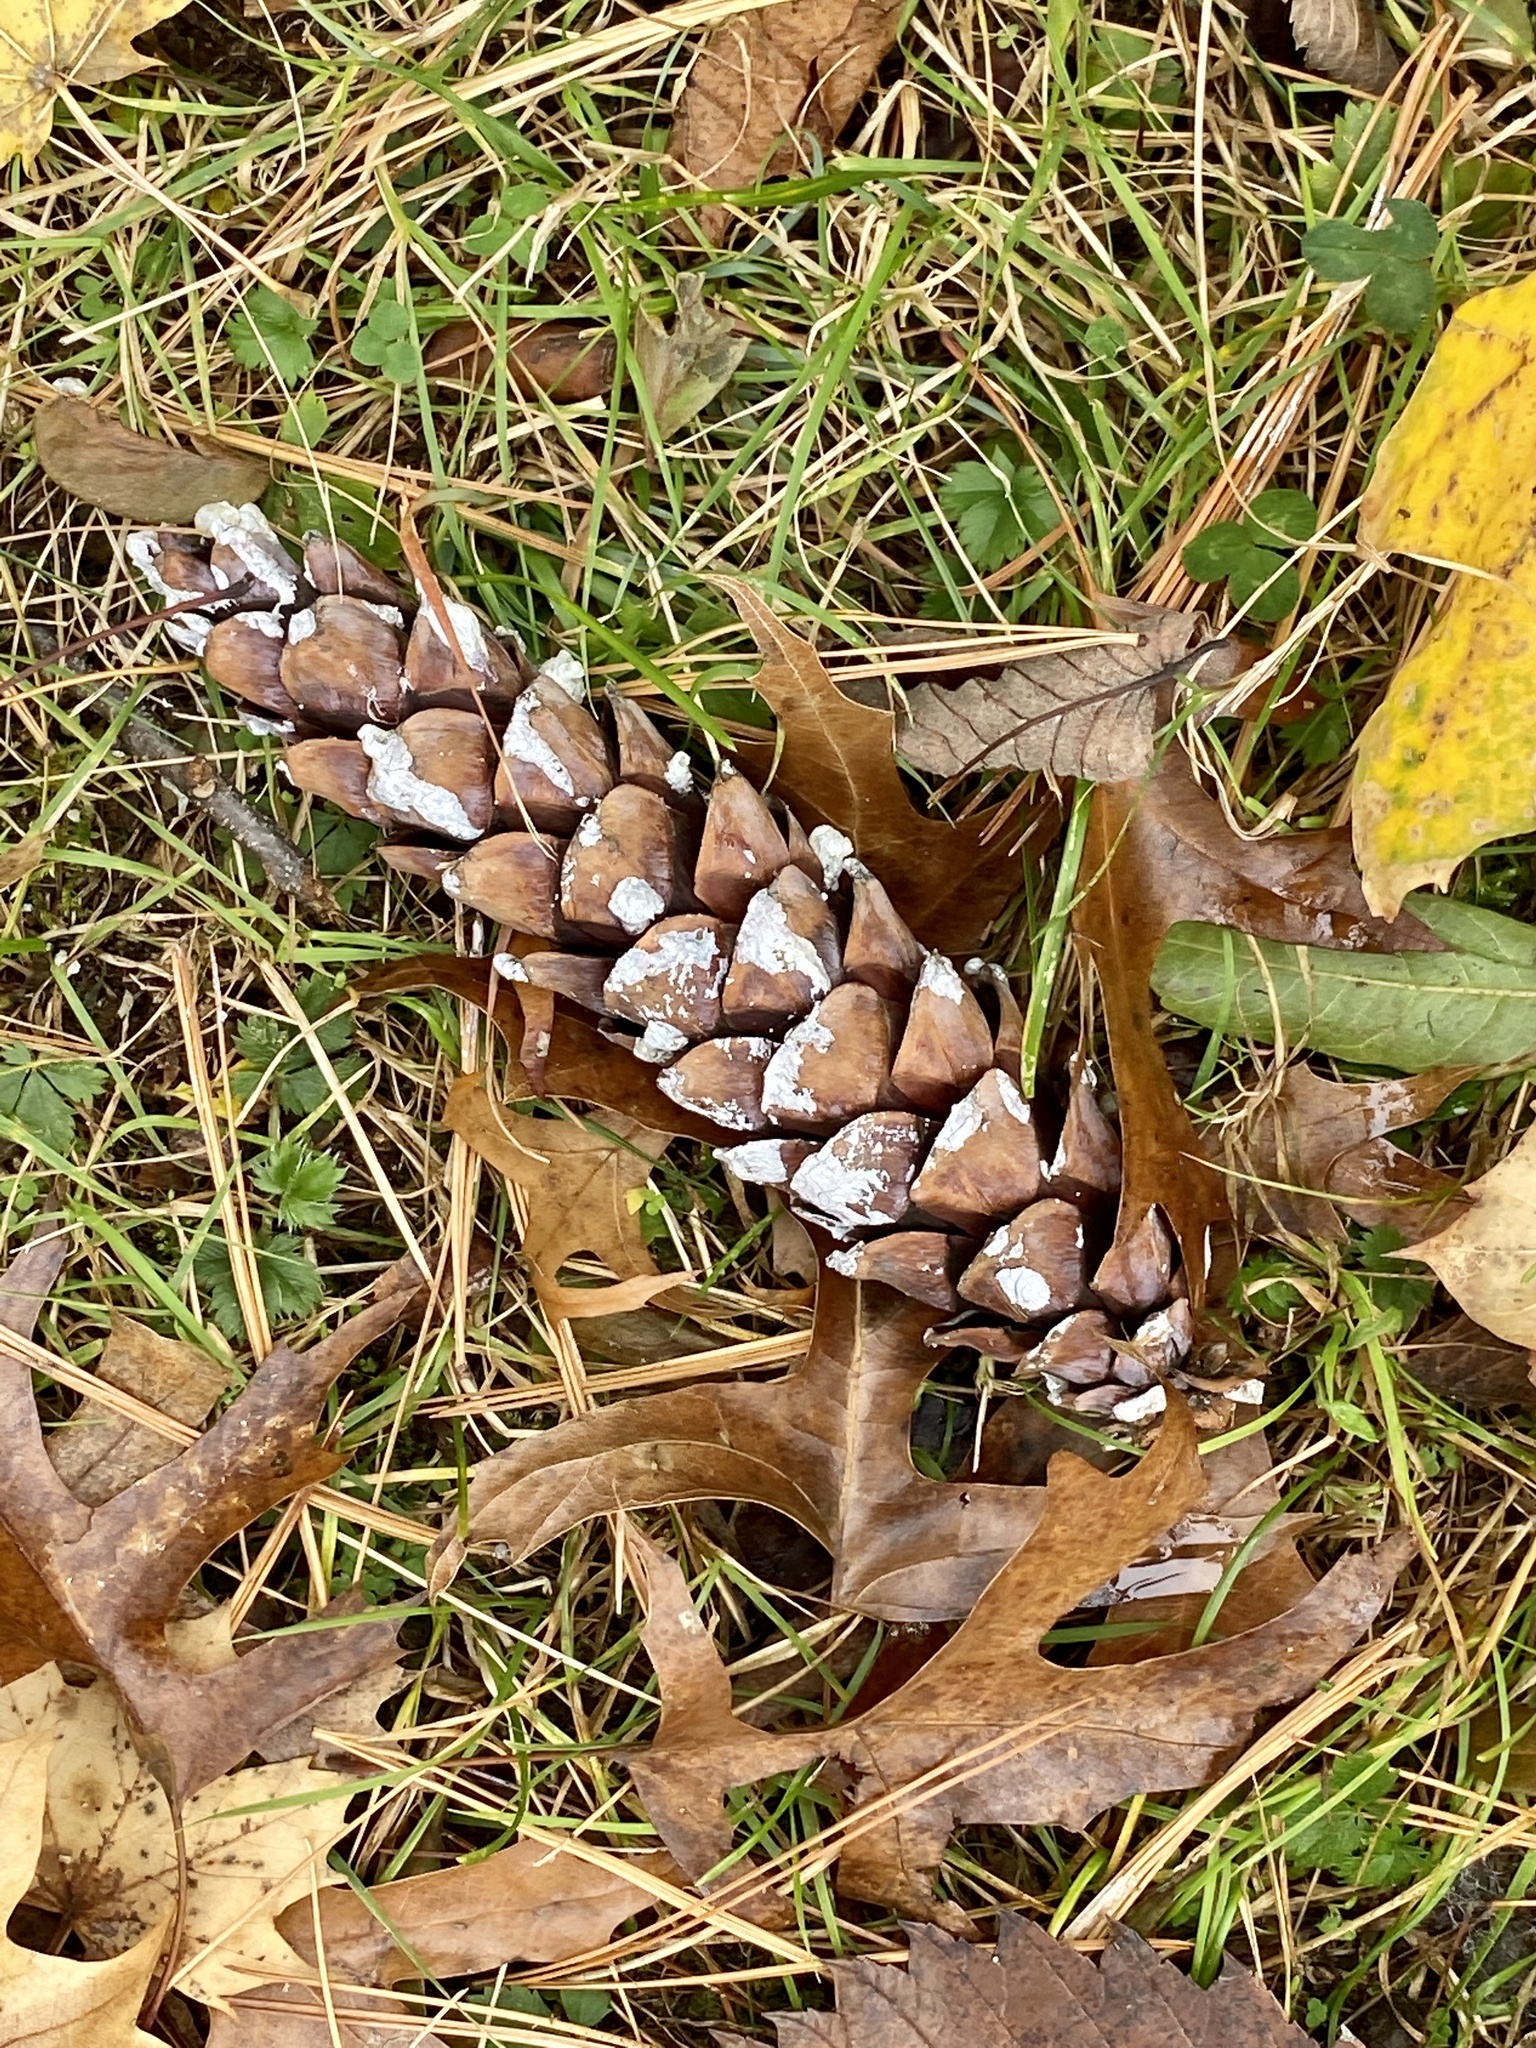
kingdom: Plantae
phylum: Tracheophyta
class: Pinopsida
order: Pinales
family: Pinaceae
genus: Pinus
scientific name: Pinus strobus
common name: Weymouth pine
